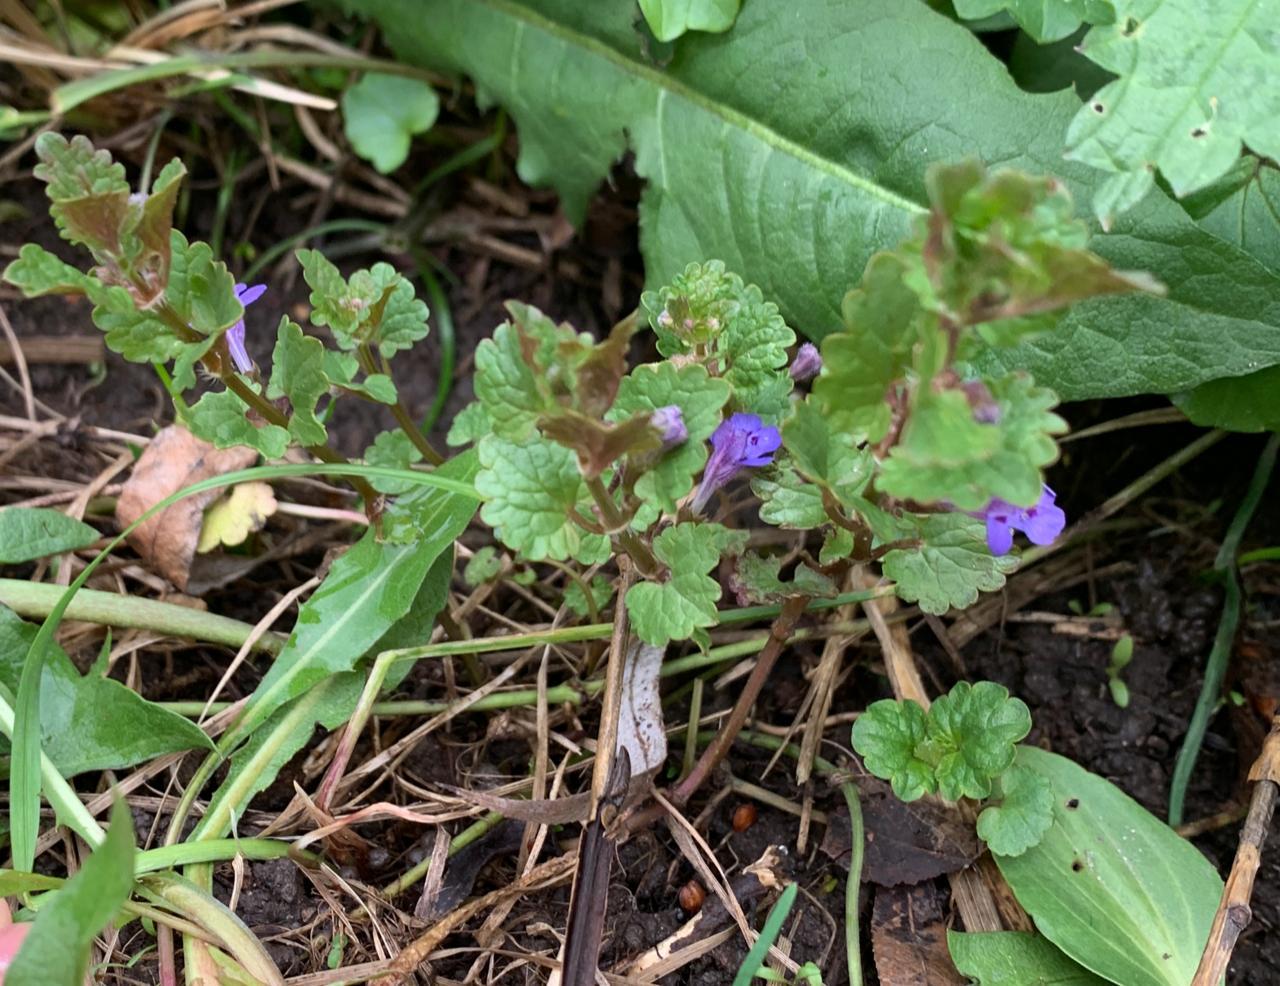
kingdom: Plantae
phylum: Tracheophyta
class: Magnoliopsida
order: Lamiales
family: Lamiaceae
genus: Glechoma
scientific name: Glechoma hederacea
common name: Ground ivy
